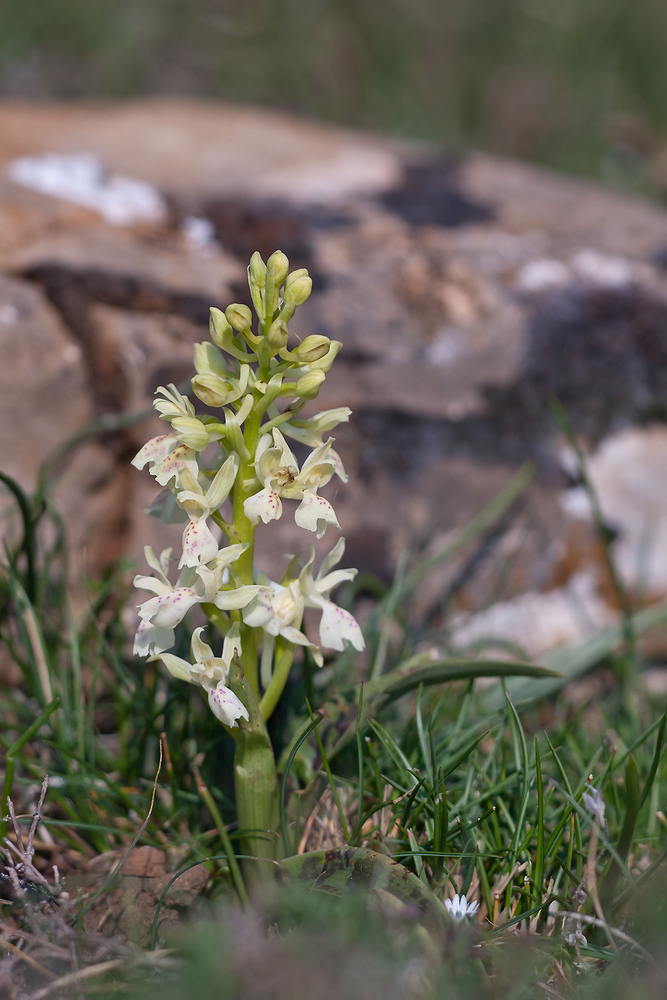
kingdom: Plantae
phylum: Tracheophyta
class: Liliopsida
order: Asparagales
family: Orchidaceae
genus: Orchis
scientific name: Orchis provincialis
